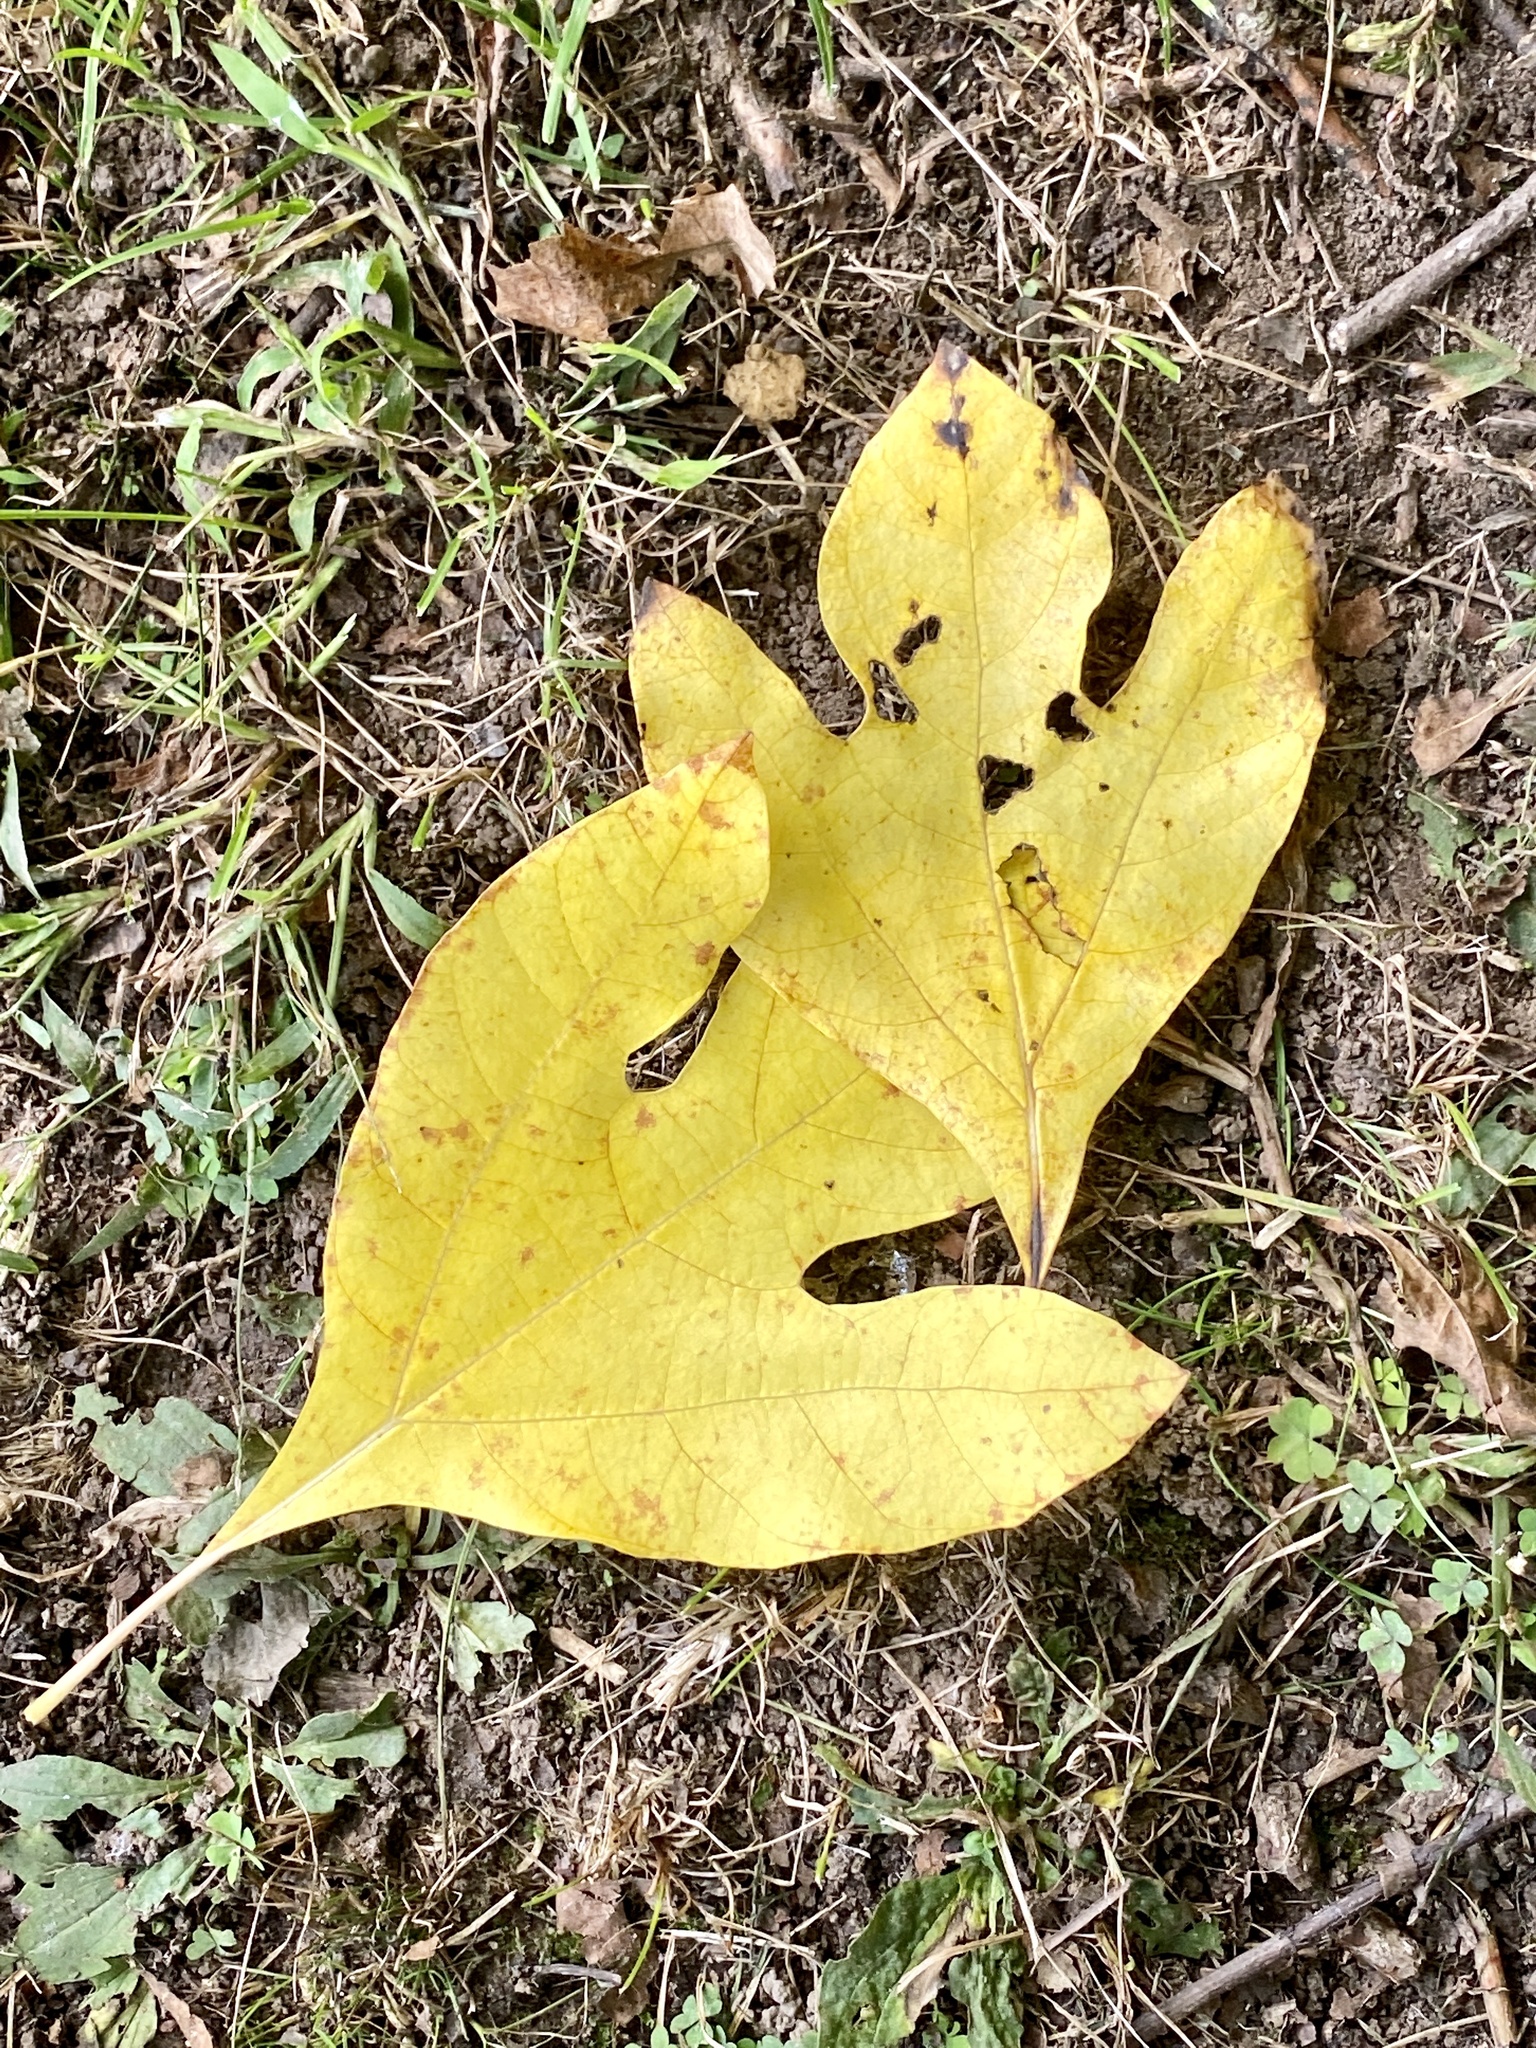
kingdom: Plantae
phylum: Tracheophyta
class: Magnoliopsida
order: Laurales
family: Lauraceae
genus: Sassafras
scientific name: Sassafras albidum
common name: Sassafras
